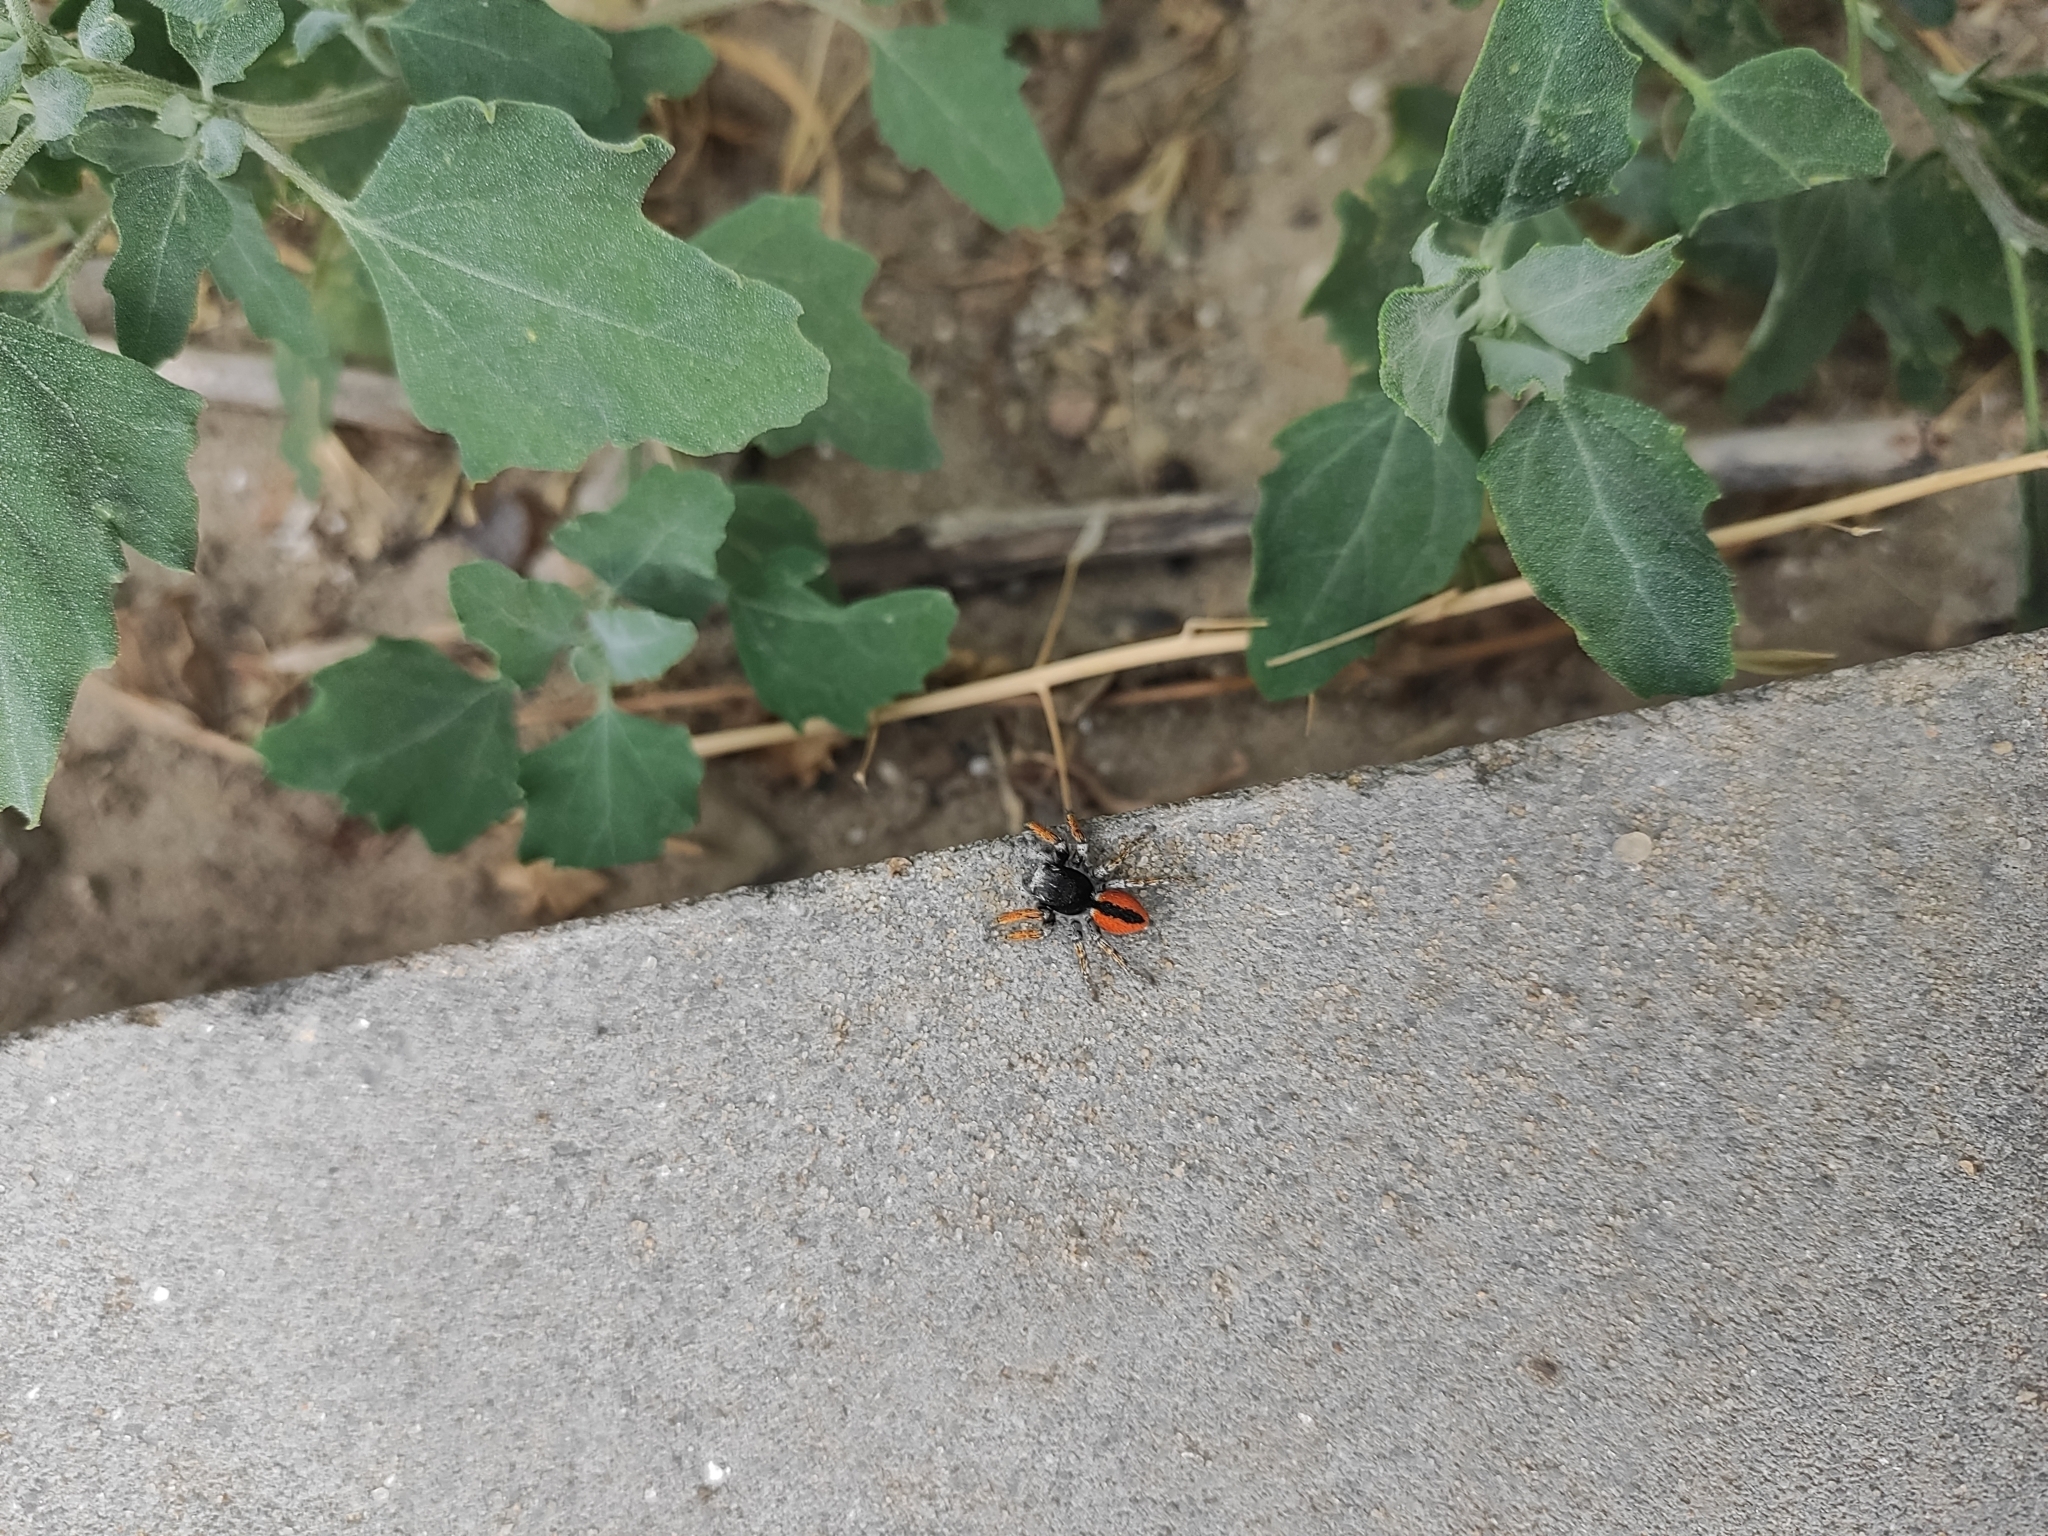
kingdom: Animalia
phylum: Arthropoda
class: Arachnida
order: Araneae
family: Salticidae
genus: Philaeus
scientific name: Philaeus chrysops
